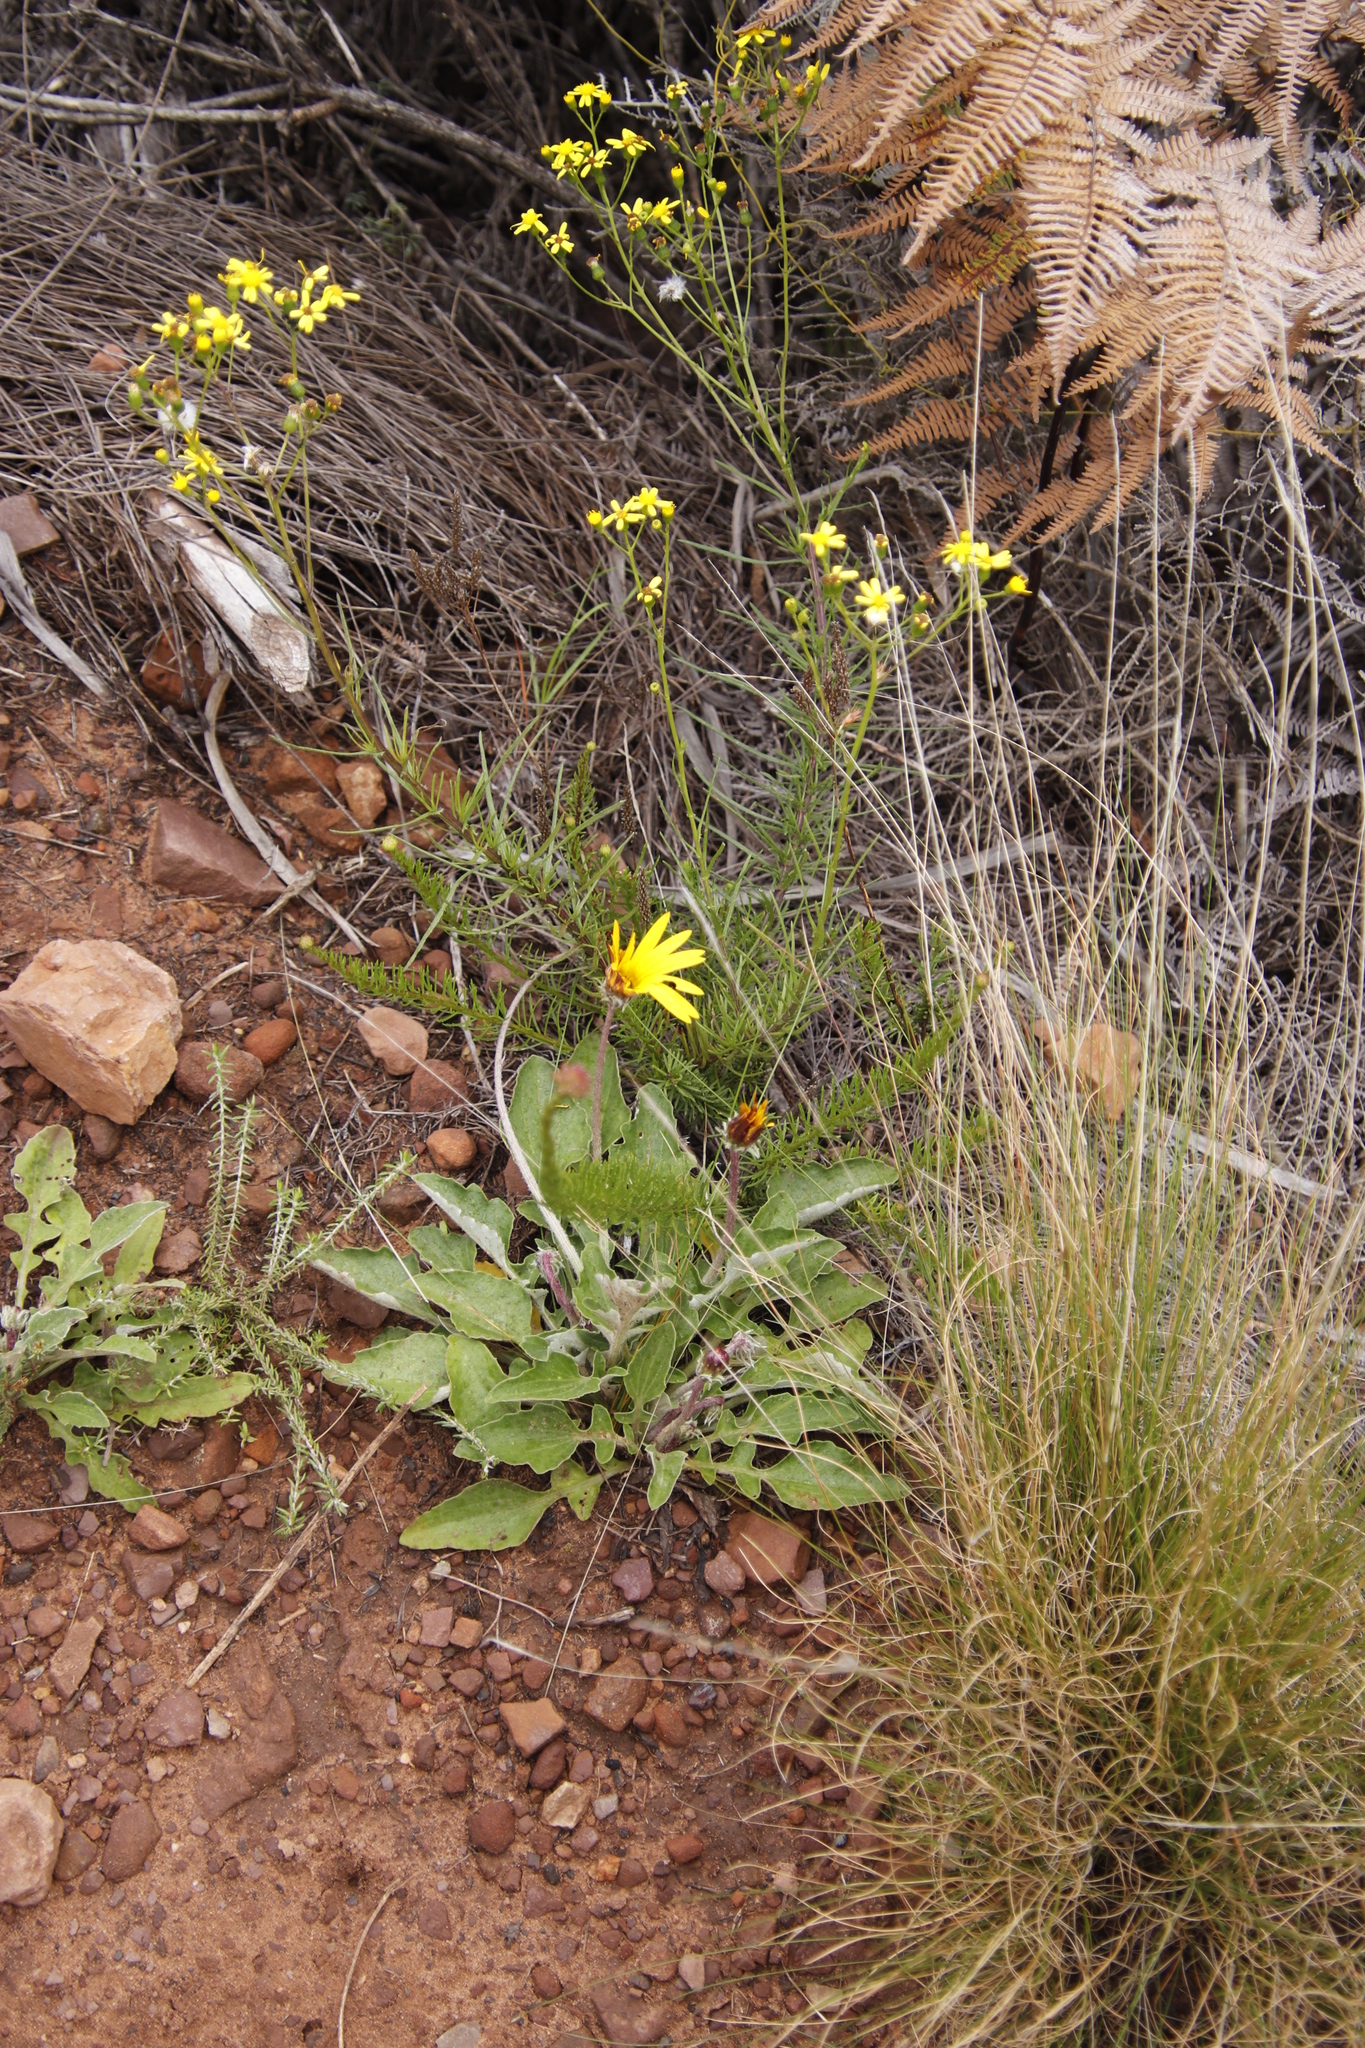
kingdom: Plantae
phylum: Tracheophyta
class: Magnoliopsida
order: Asterales
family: Asteraceae
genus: Arctotis
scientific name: Arctotis acaulis
